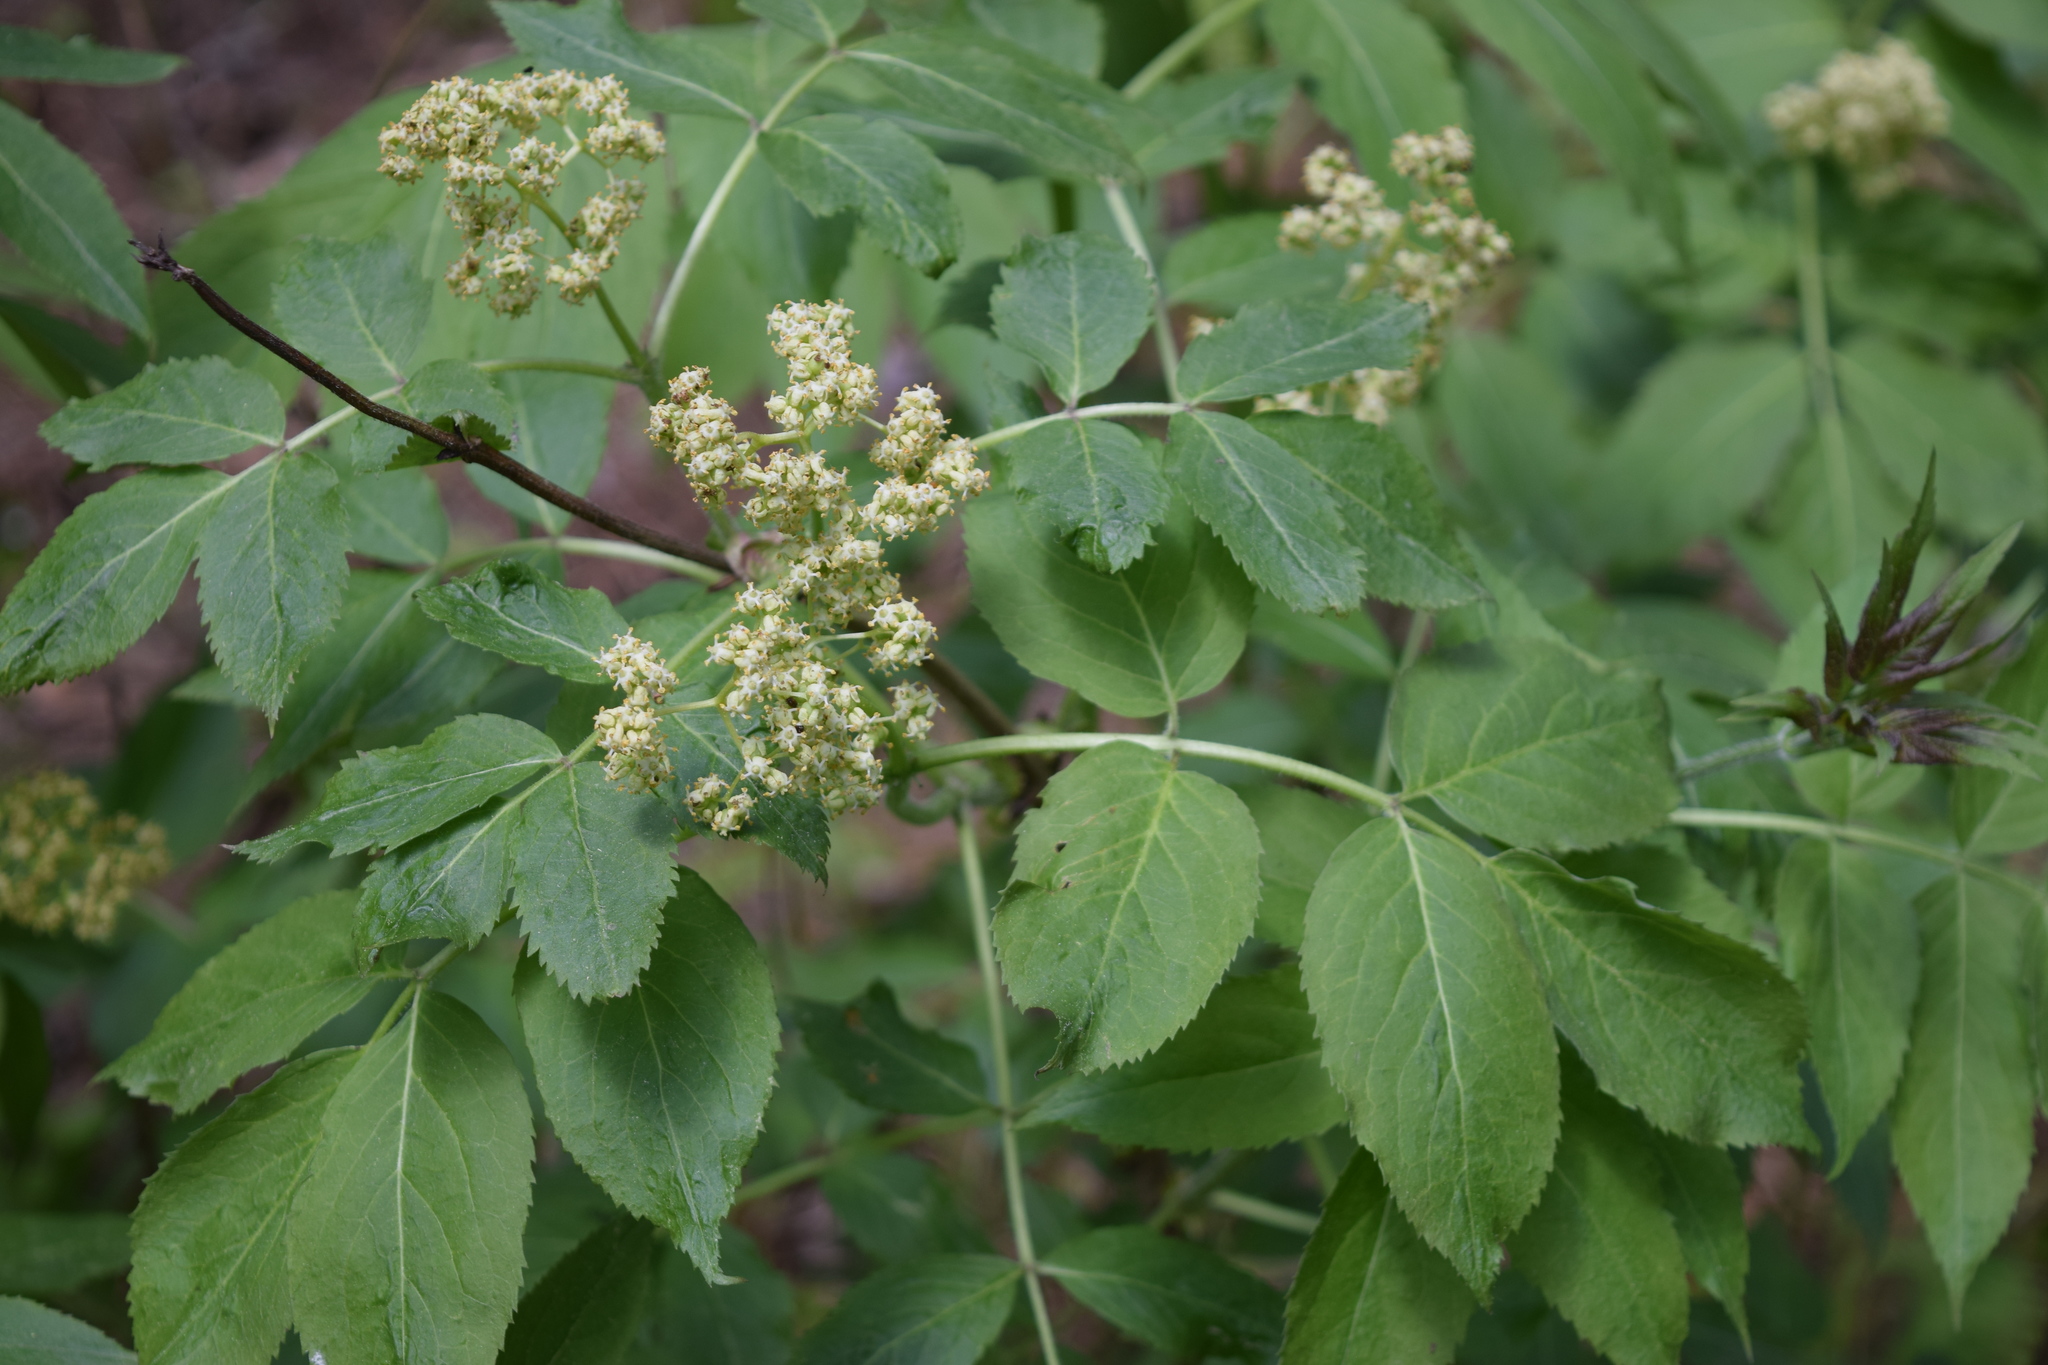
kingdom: Plantae
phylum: Tracheophyta
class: Magnoliopsida
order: Dipsacales
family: Viburnaceae
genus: Sambucus
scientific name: Sambucus racemosa
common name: Red-berried elder
